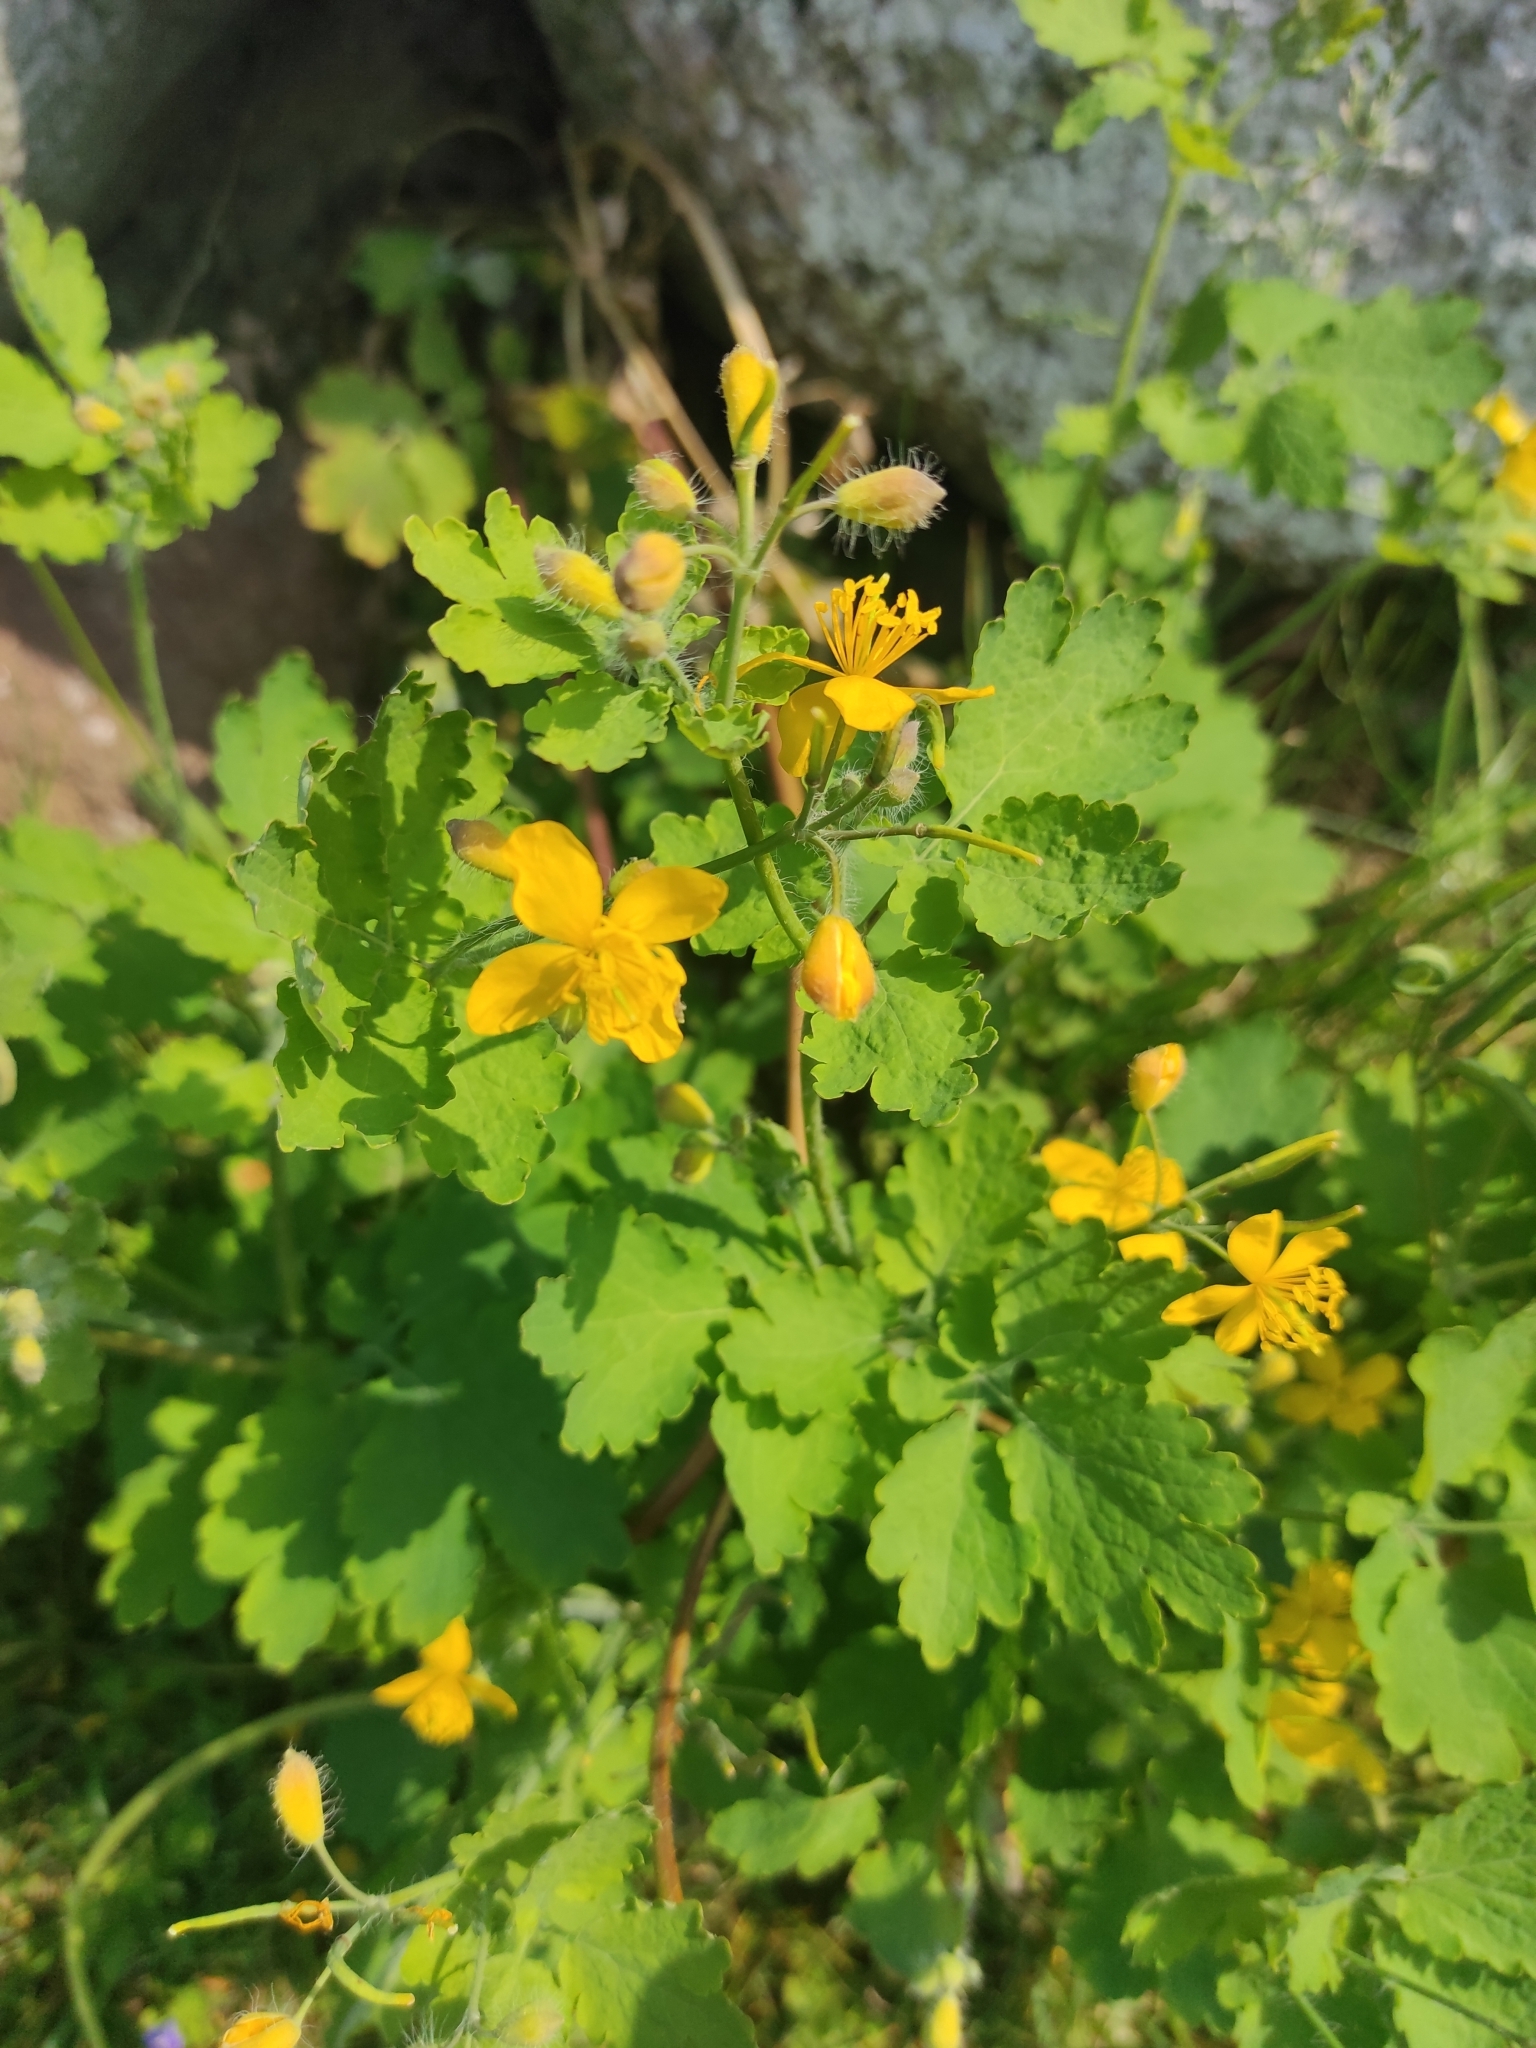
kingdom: Plantae
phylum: Tracheophyta
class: Magnoliopsida
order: Ranunculales
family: Papaveraceae
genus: Chelidonium
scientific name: Chelidonium majus
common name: Greater celandine
